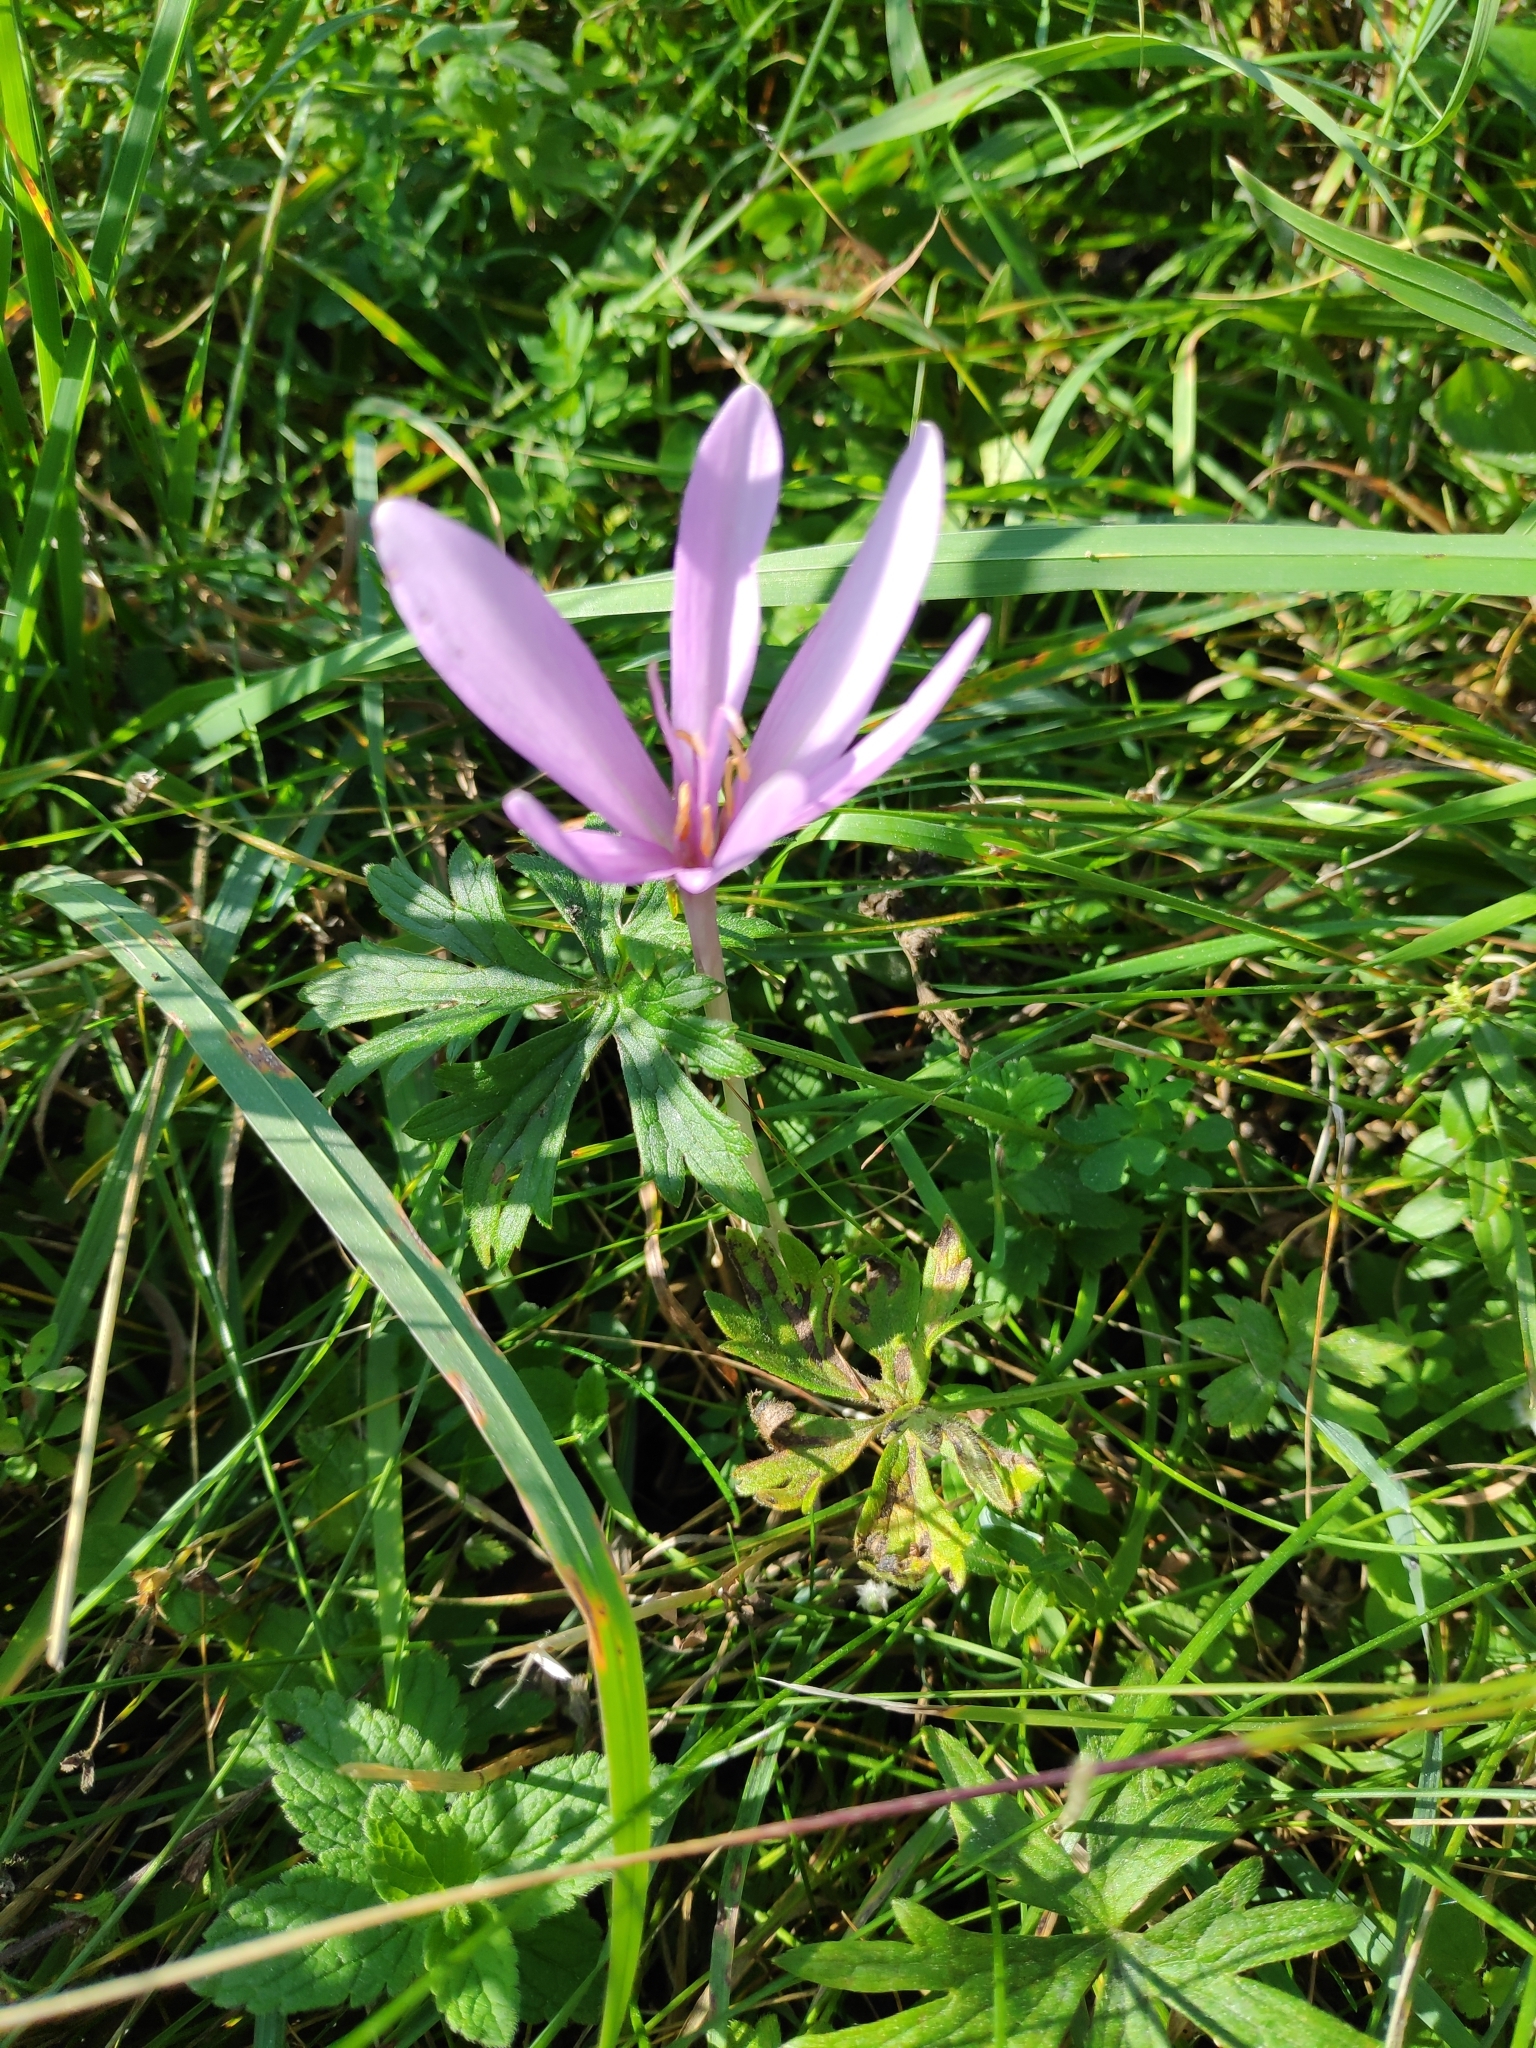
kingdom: Plantae
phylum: Tracheophyta
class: Liliopsida
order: Liliales
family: Colchicaceae
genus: Colchicum
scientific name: Colchicum autumnale
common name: Autumn crocus
